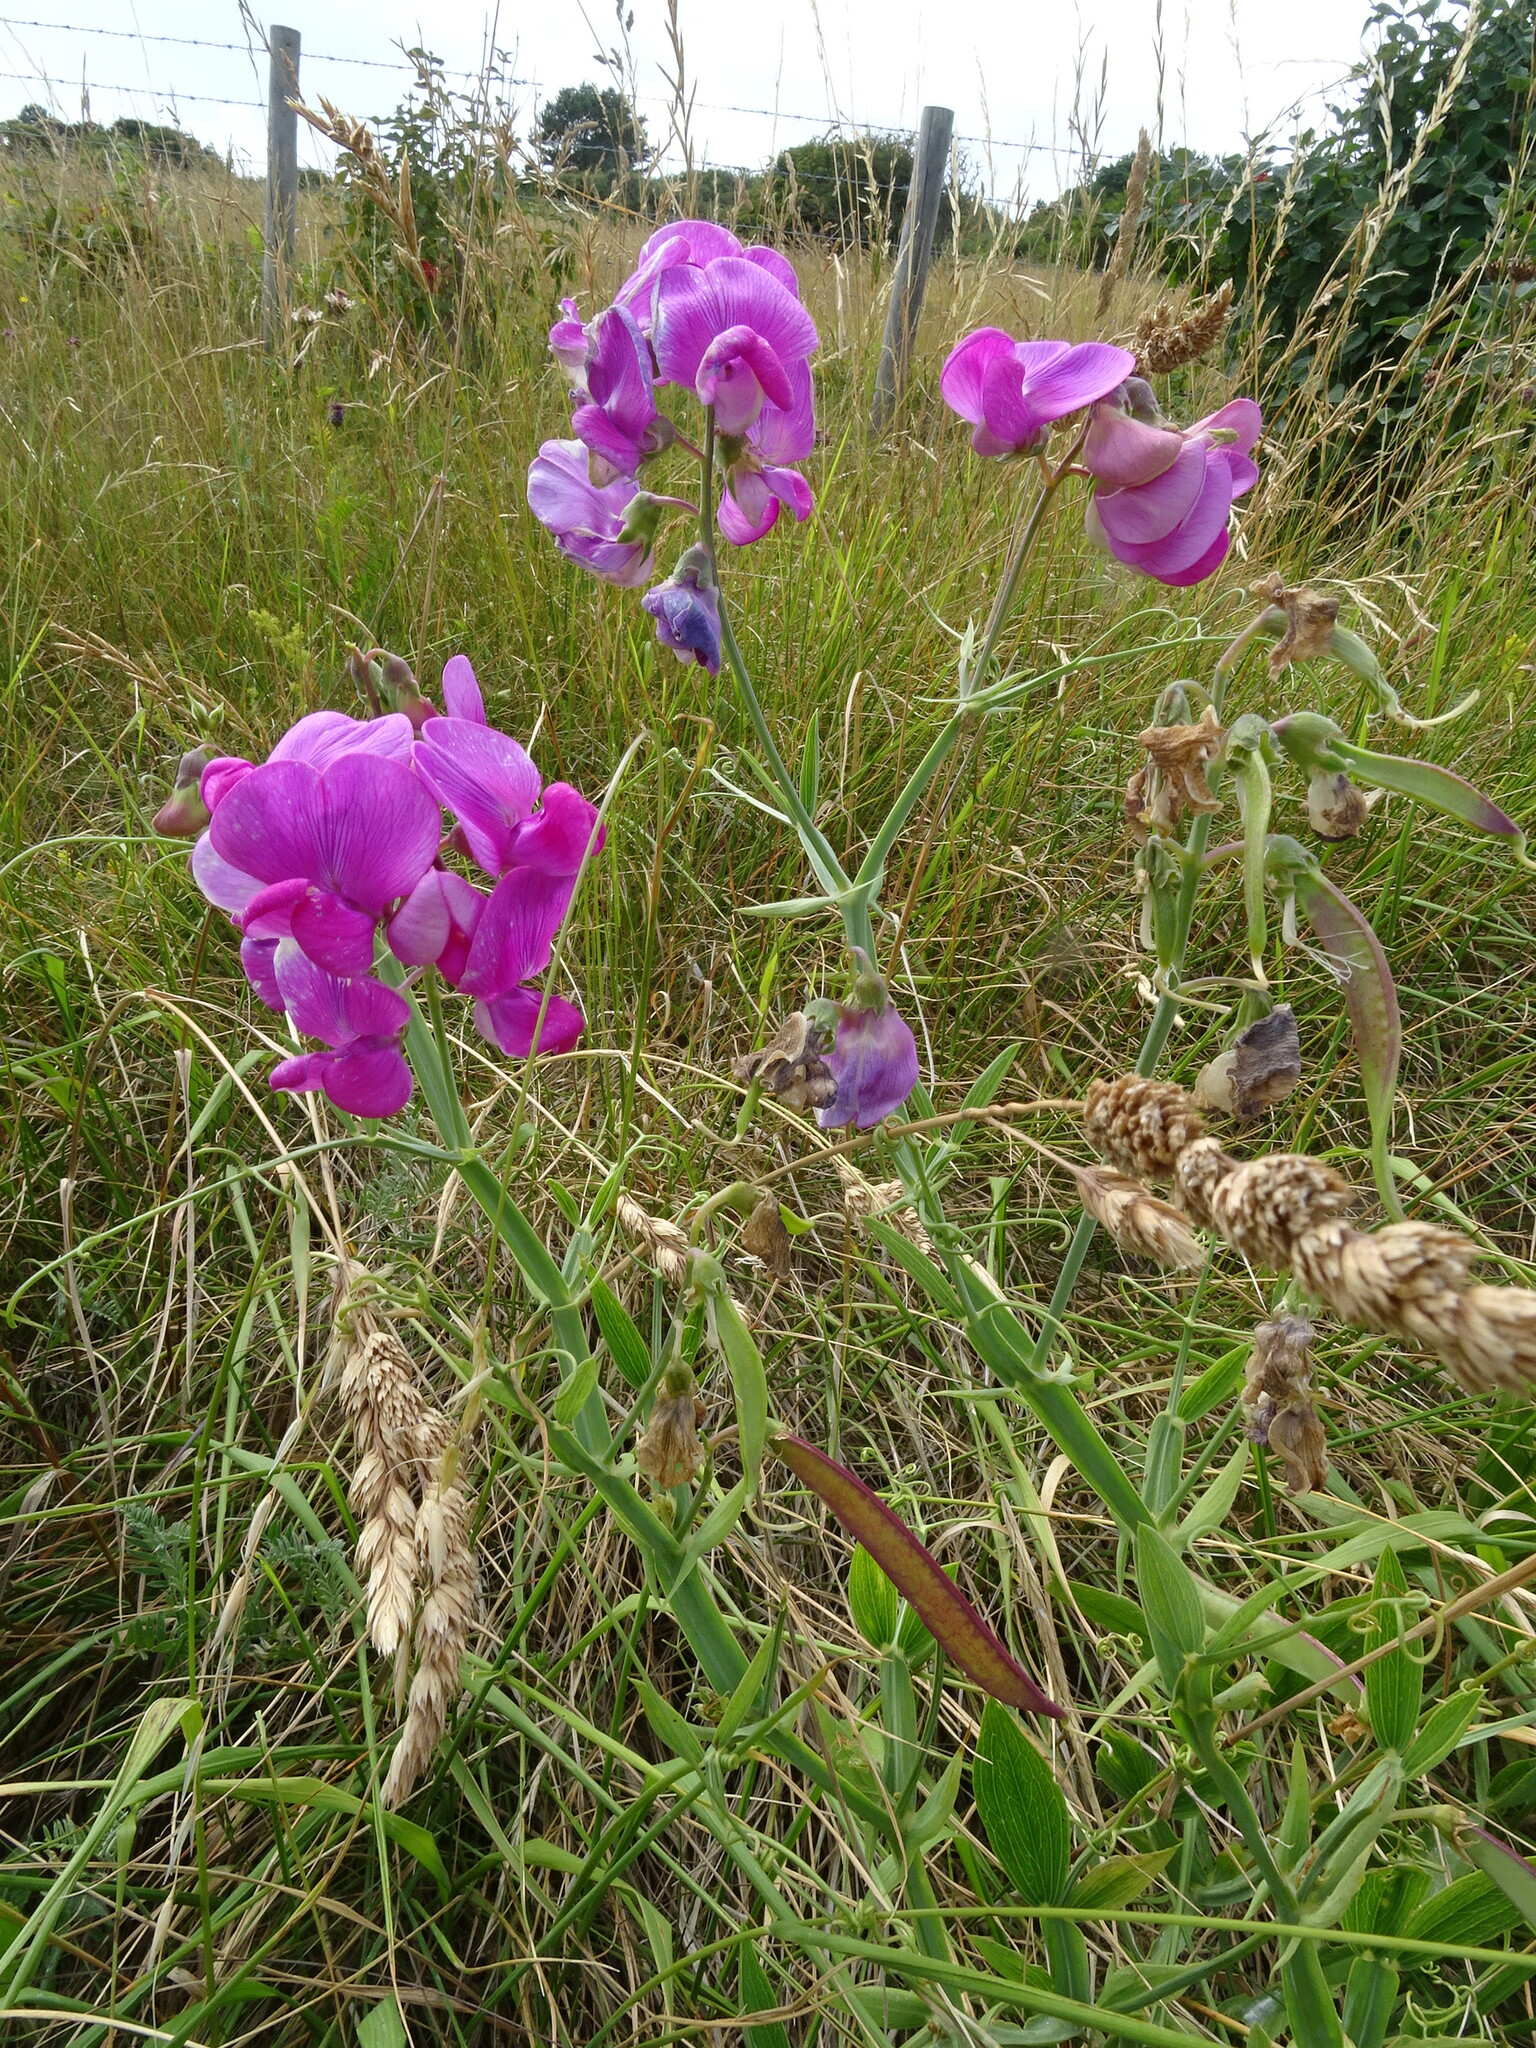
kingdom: Plantae
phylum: Tracheophyta
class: Magnoliopsida
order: Fabales
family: Fabaceae
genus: Lathyrus
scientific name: Lathyrus latifolius
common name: Perennial pea
